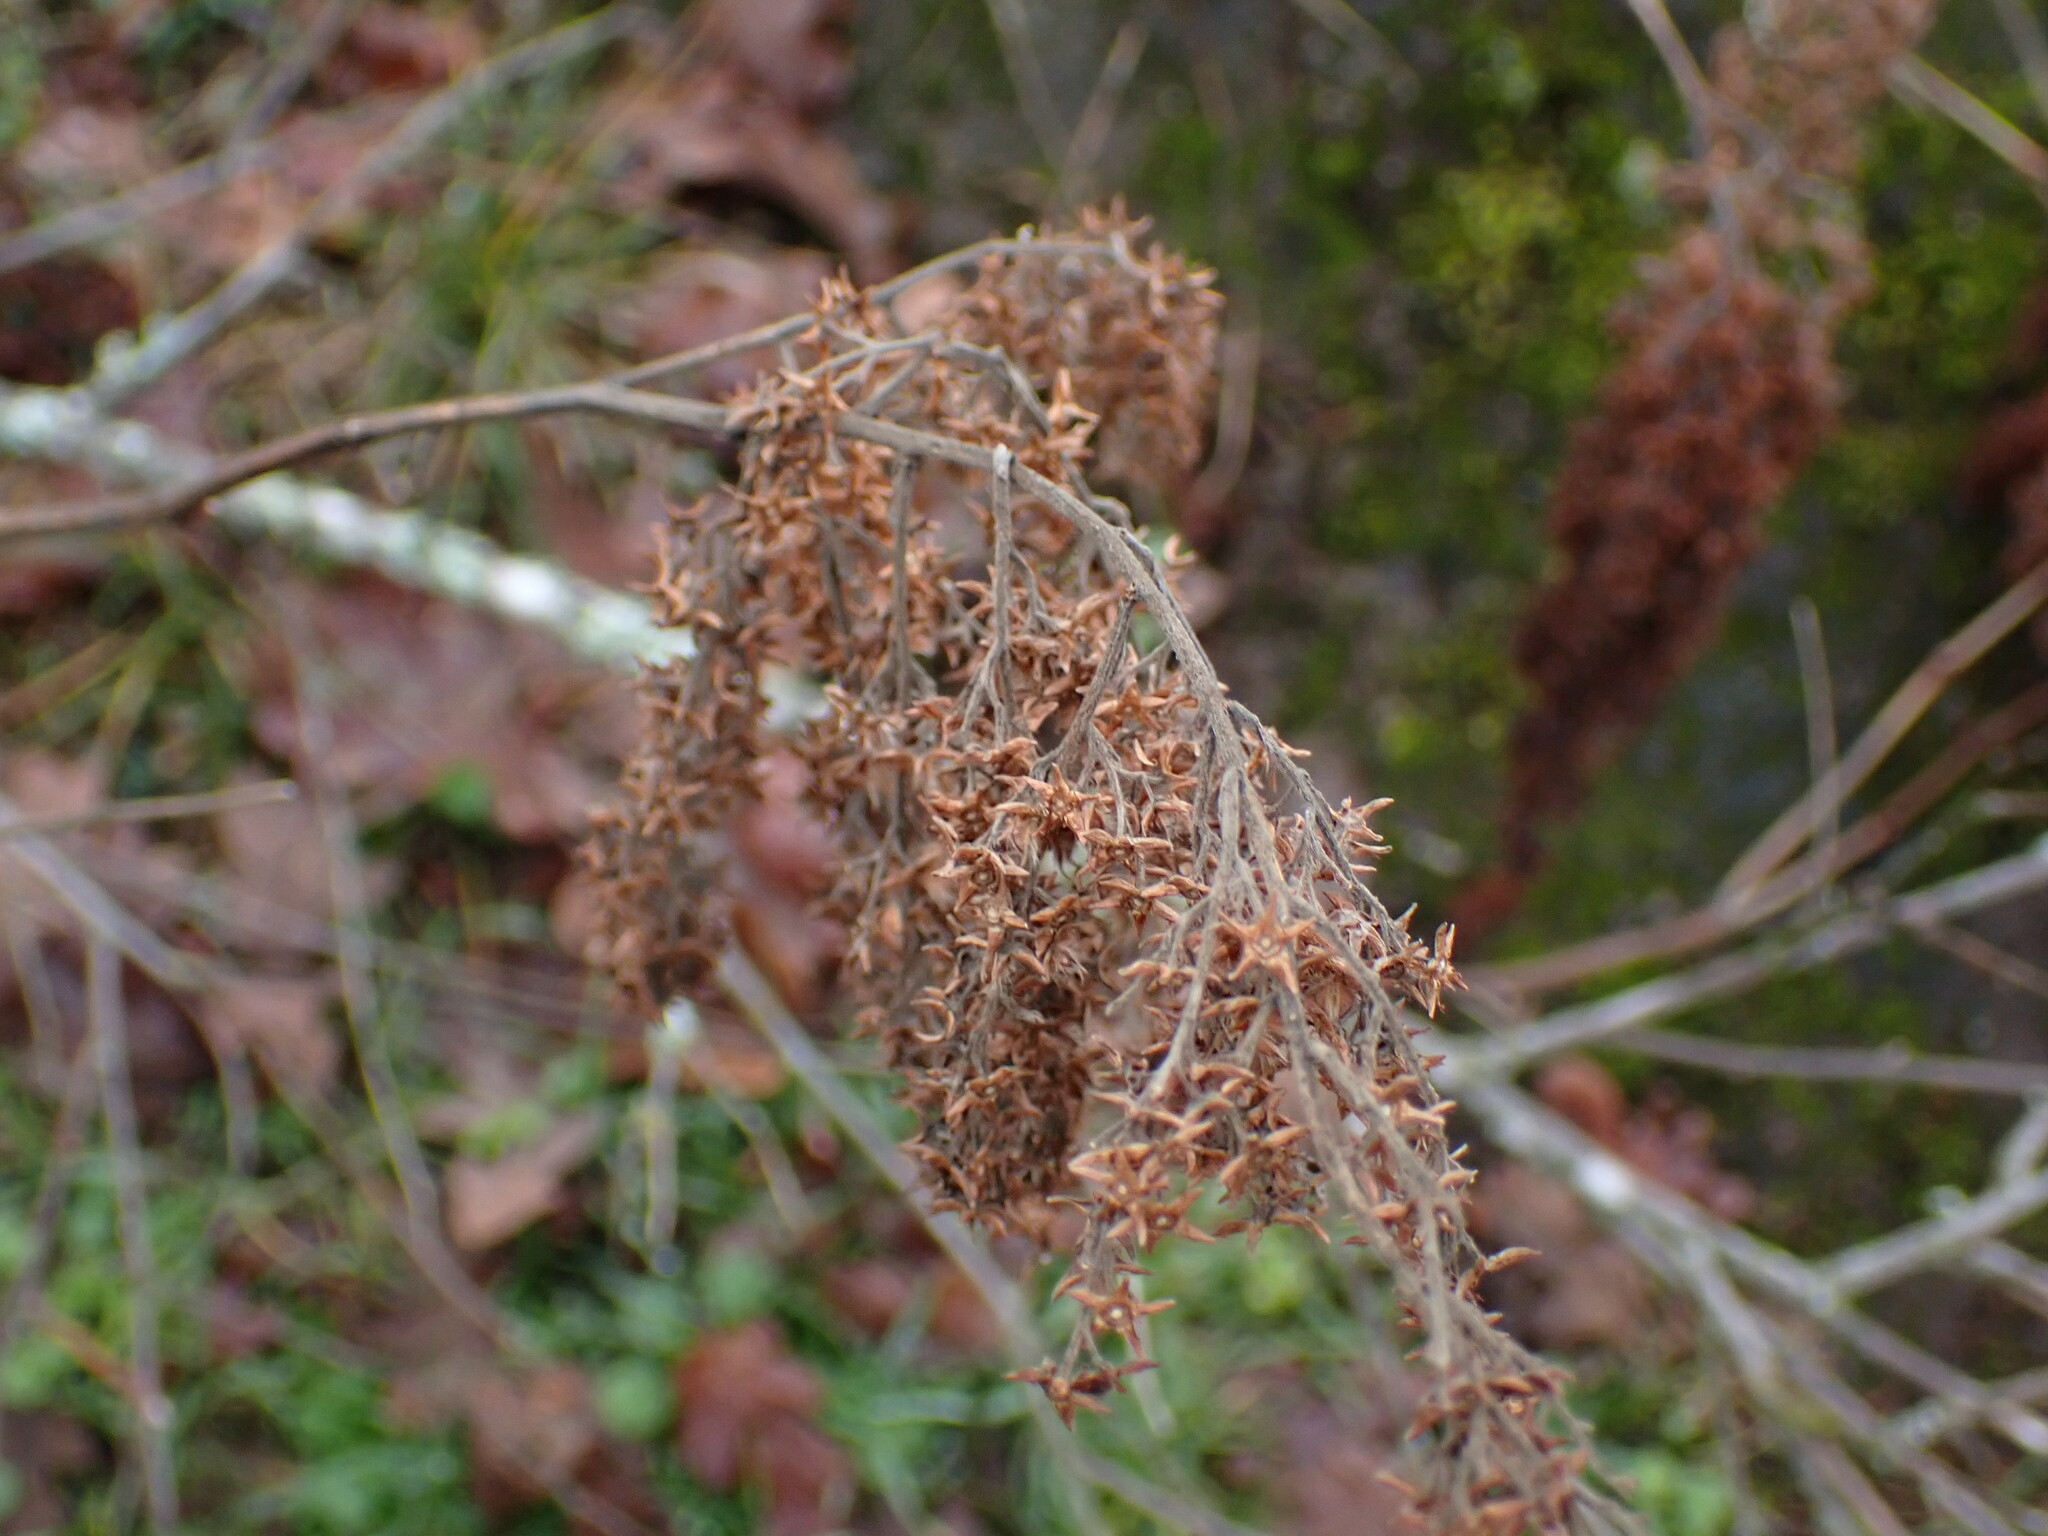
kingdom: Plantae
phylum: Tracheophyta
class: Magnoliopsida
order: Rosales
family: Rosaceae
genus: Holodiscus
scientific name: Holodiscus discolor
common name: Oceanspray
